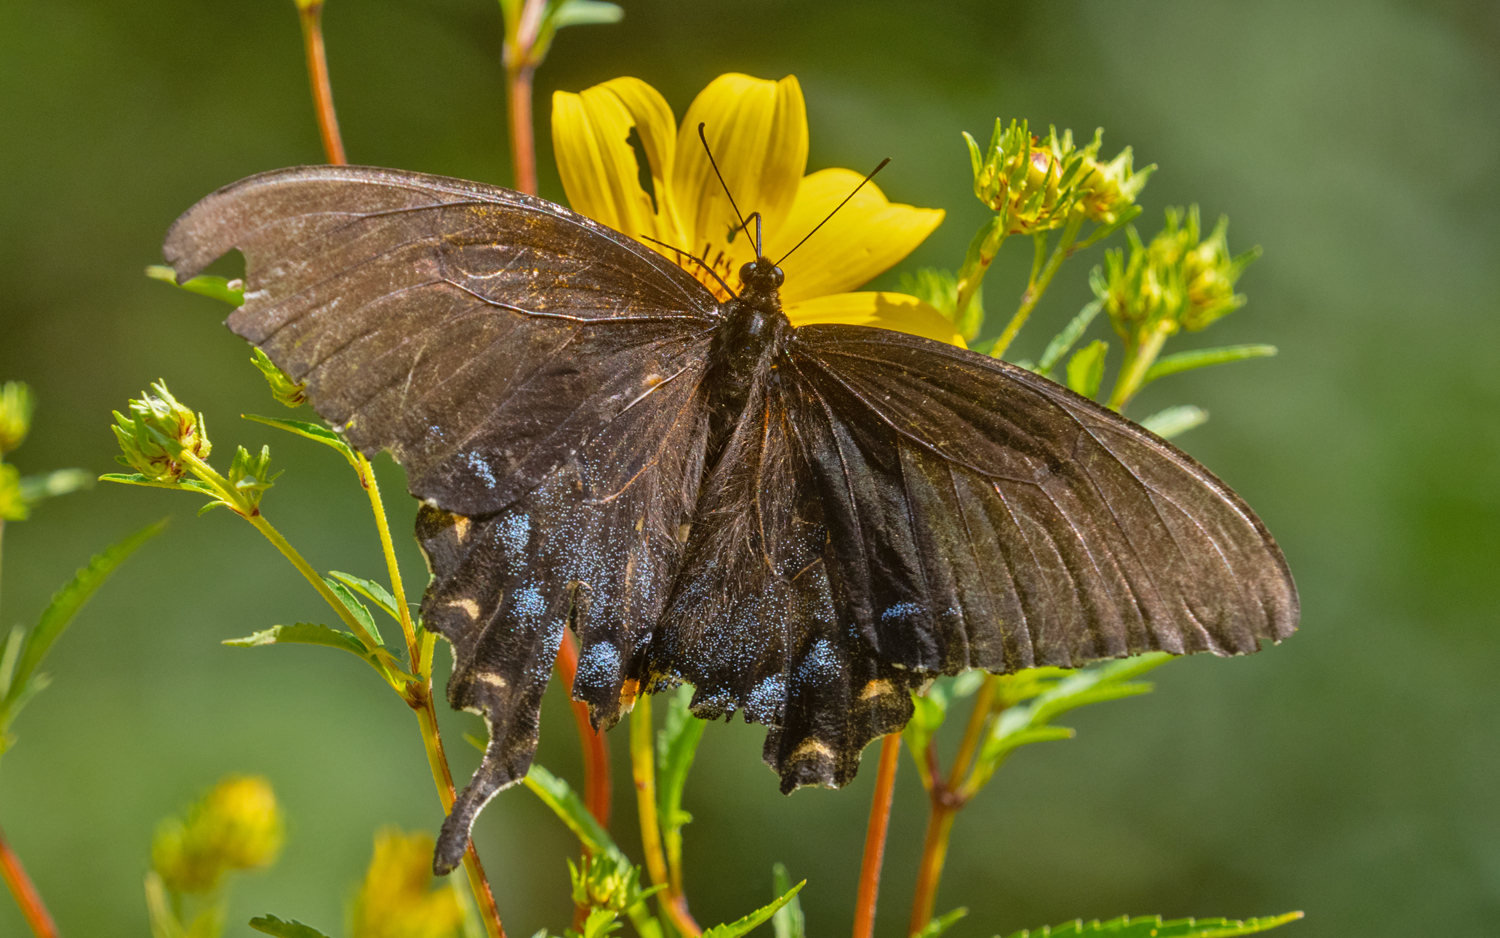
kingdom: Animalia
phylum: Arthropoda
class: Insecta
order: Lepidoptera
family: Papilionidae
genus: Papilio
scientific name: Papilio glaucus
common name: Tiger swallowtail
